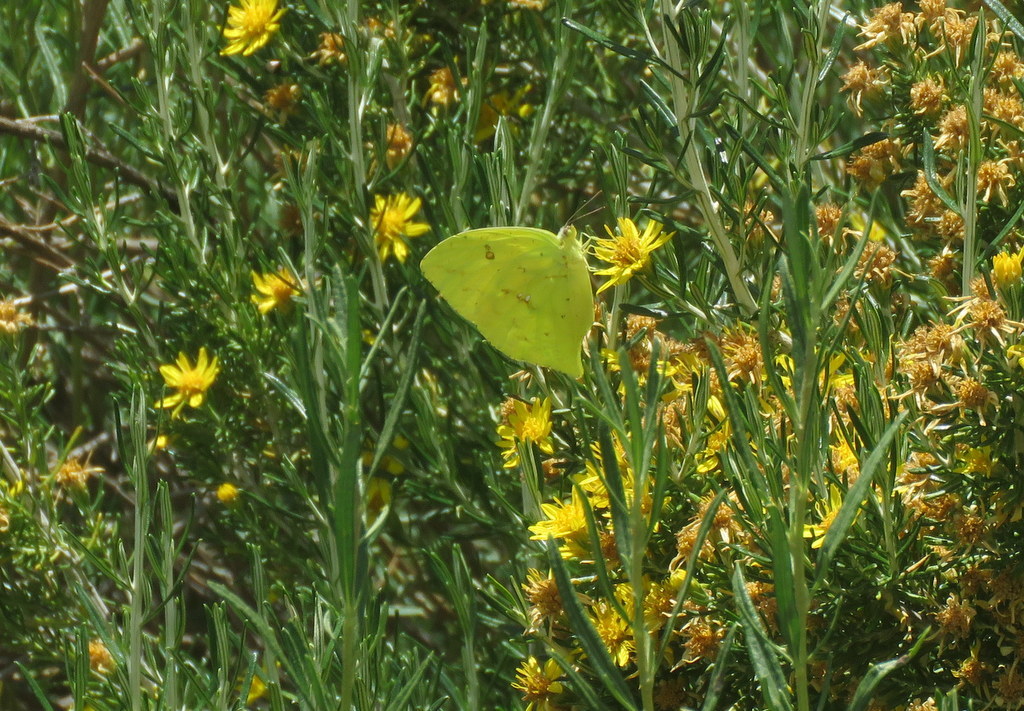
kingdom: Animalia
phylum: Arthropoda
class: Insecta
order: Lepidoptera
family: Pieridae
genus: Phoebis
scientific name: Phoebis neocypris
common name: Tailed sulphur
